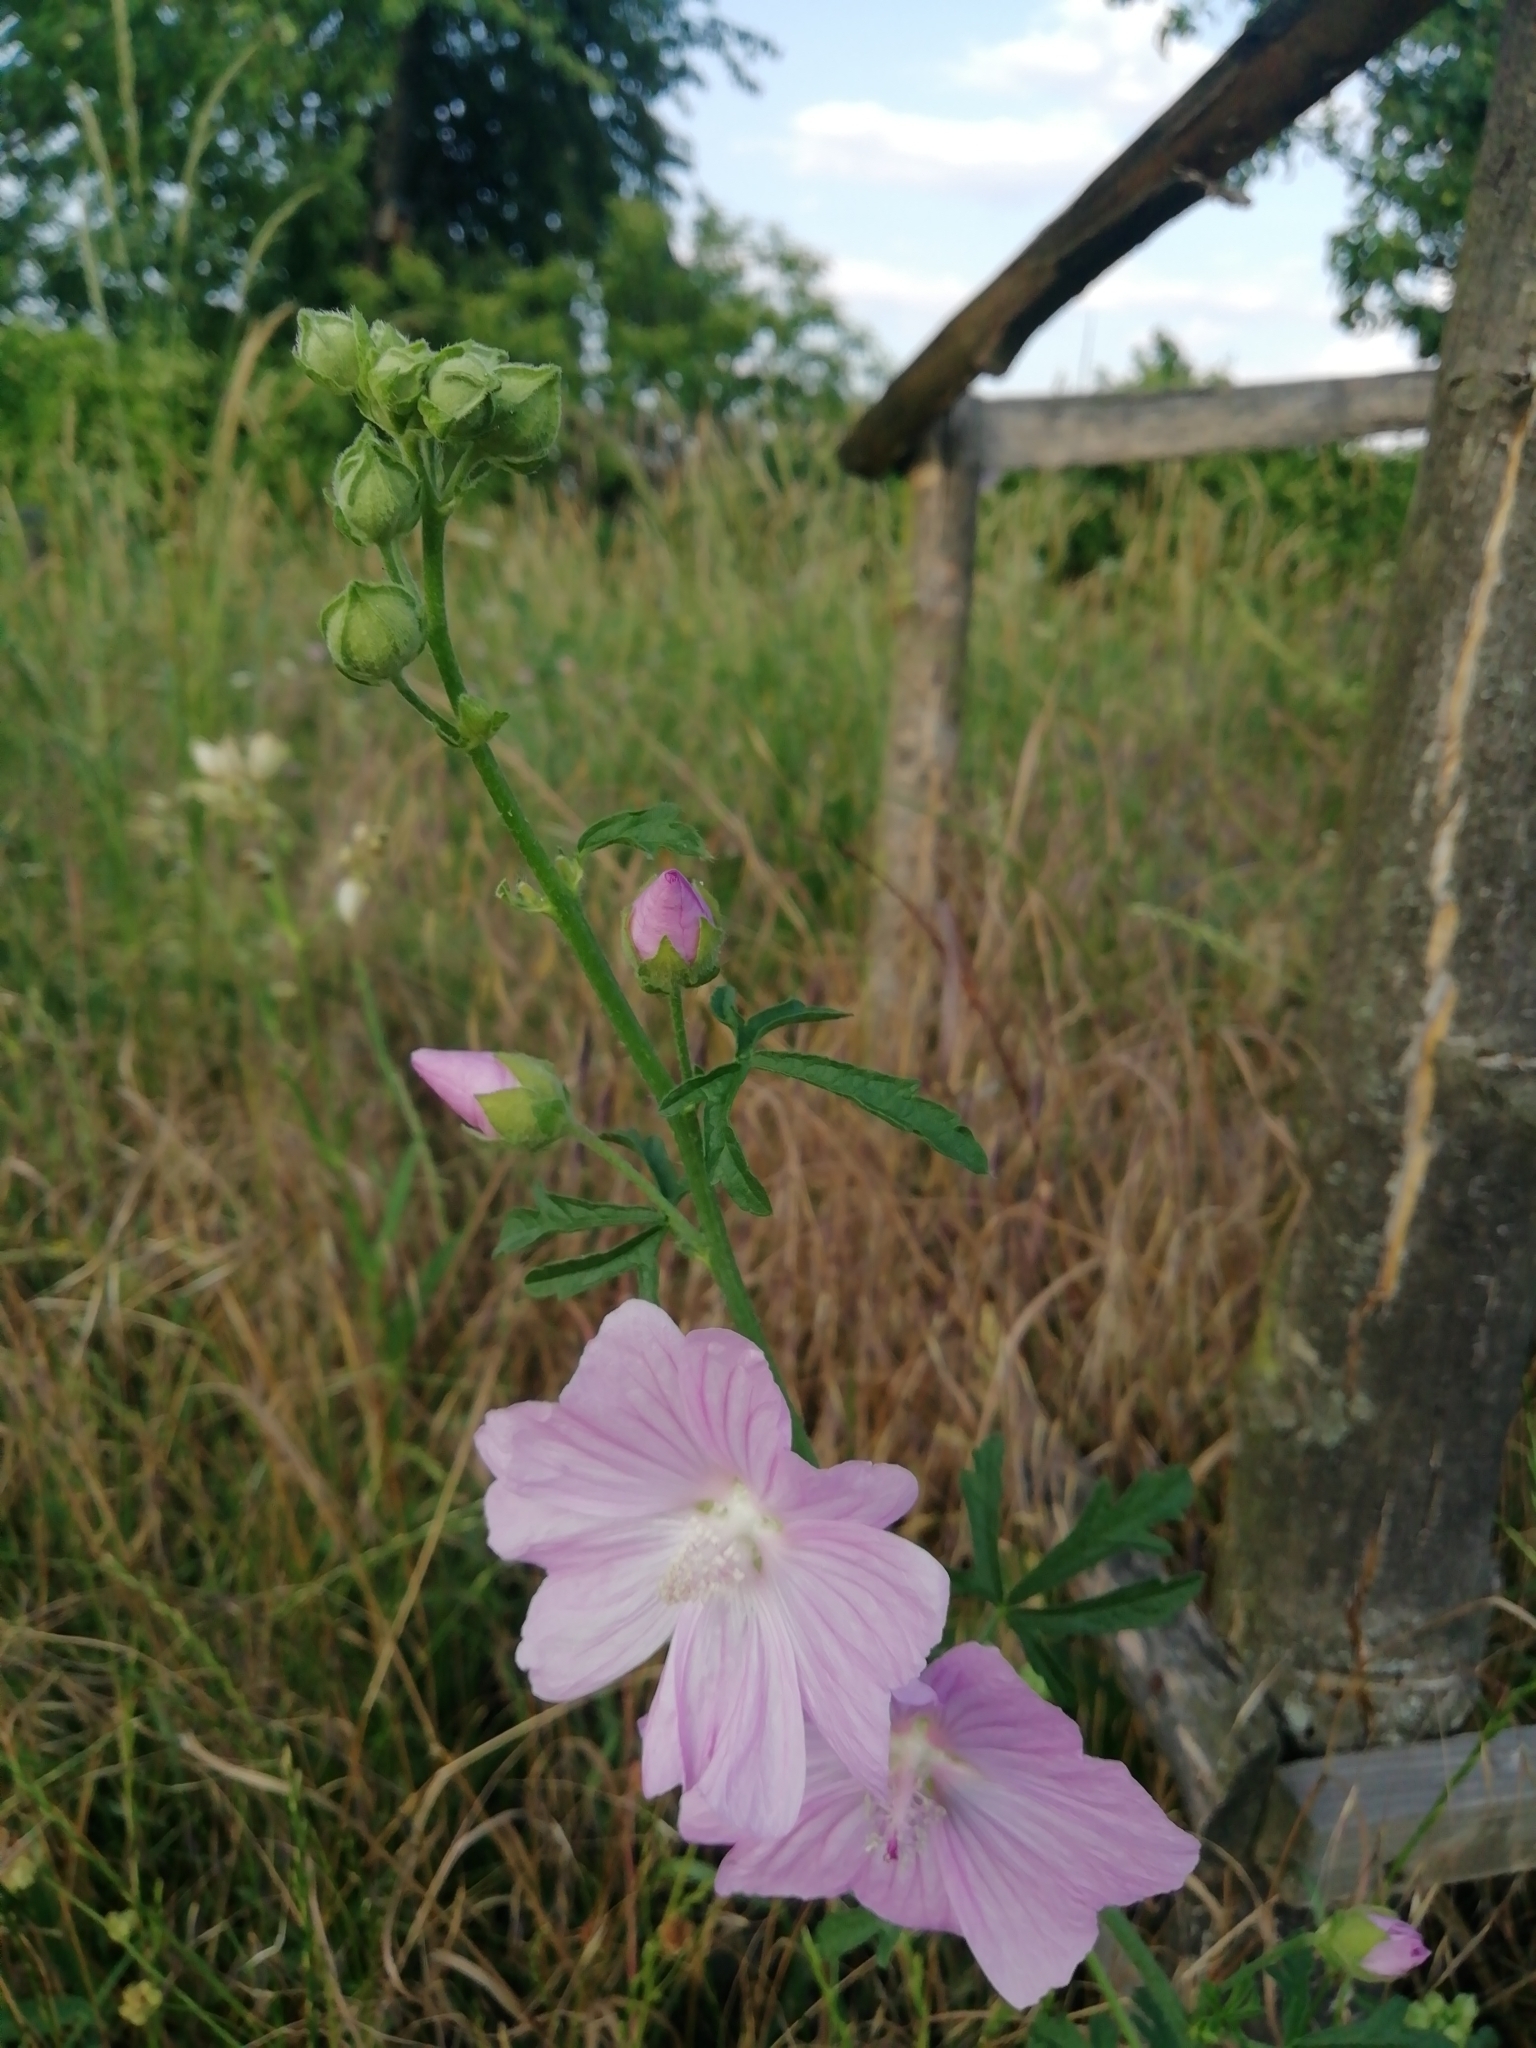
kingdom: Plantae
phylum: Tracheophyta
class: Magnoliopsida
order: Malvales
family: Malvaceae
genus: Malva
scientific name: Malva alcea
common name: Greater musk-mallow
